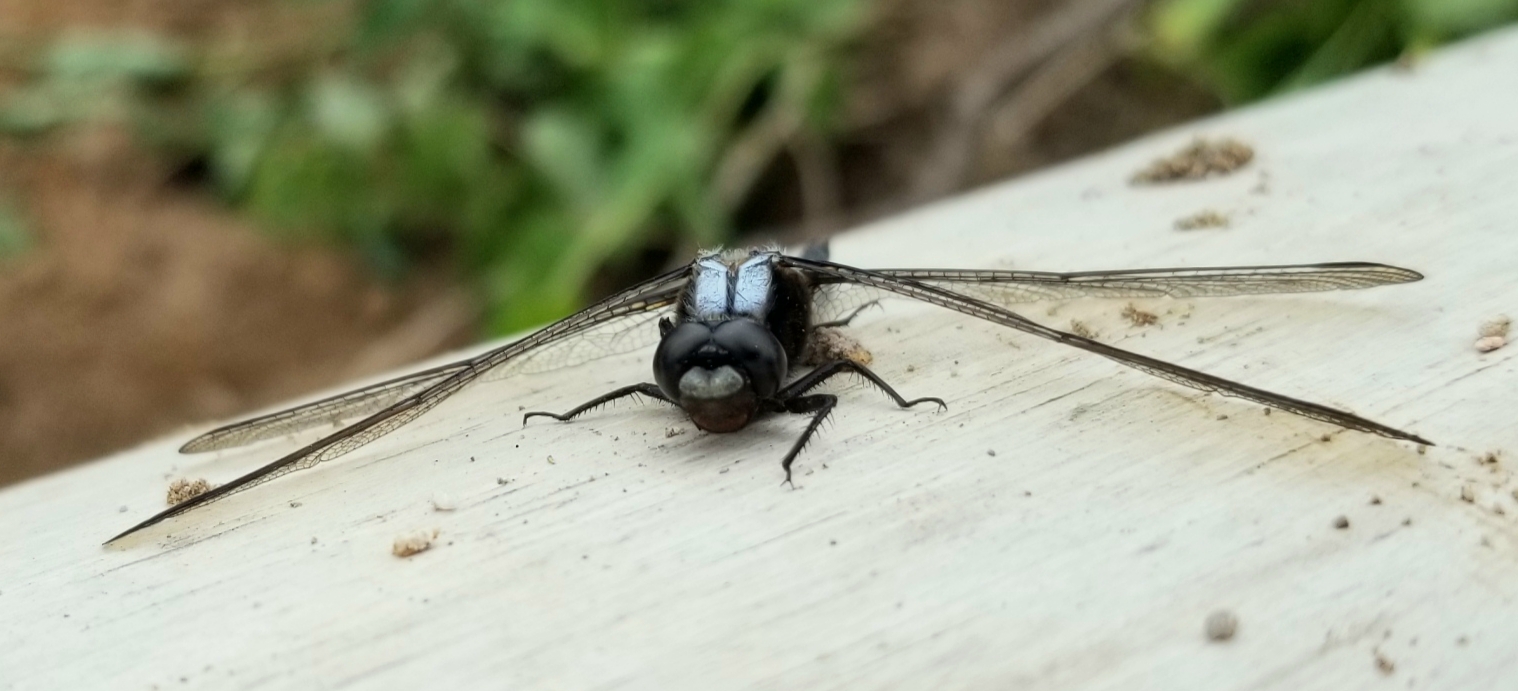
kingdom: Animalia
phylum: Arthropoda
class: Insecta
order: Odonata
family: Libellulidae
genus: Ladona
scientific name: Ladona julia
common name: Chalk-fronted corporal
